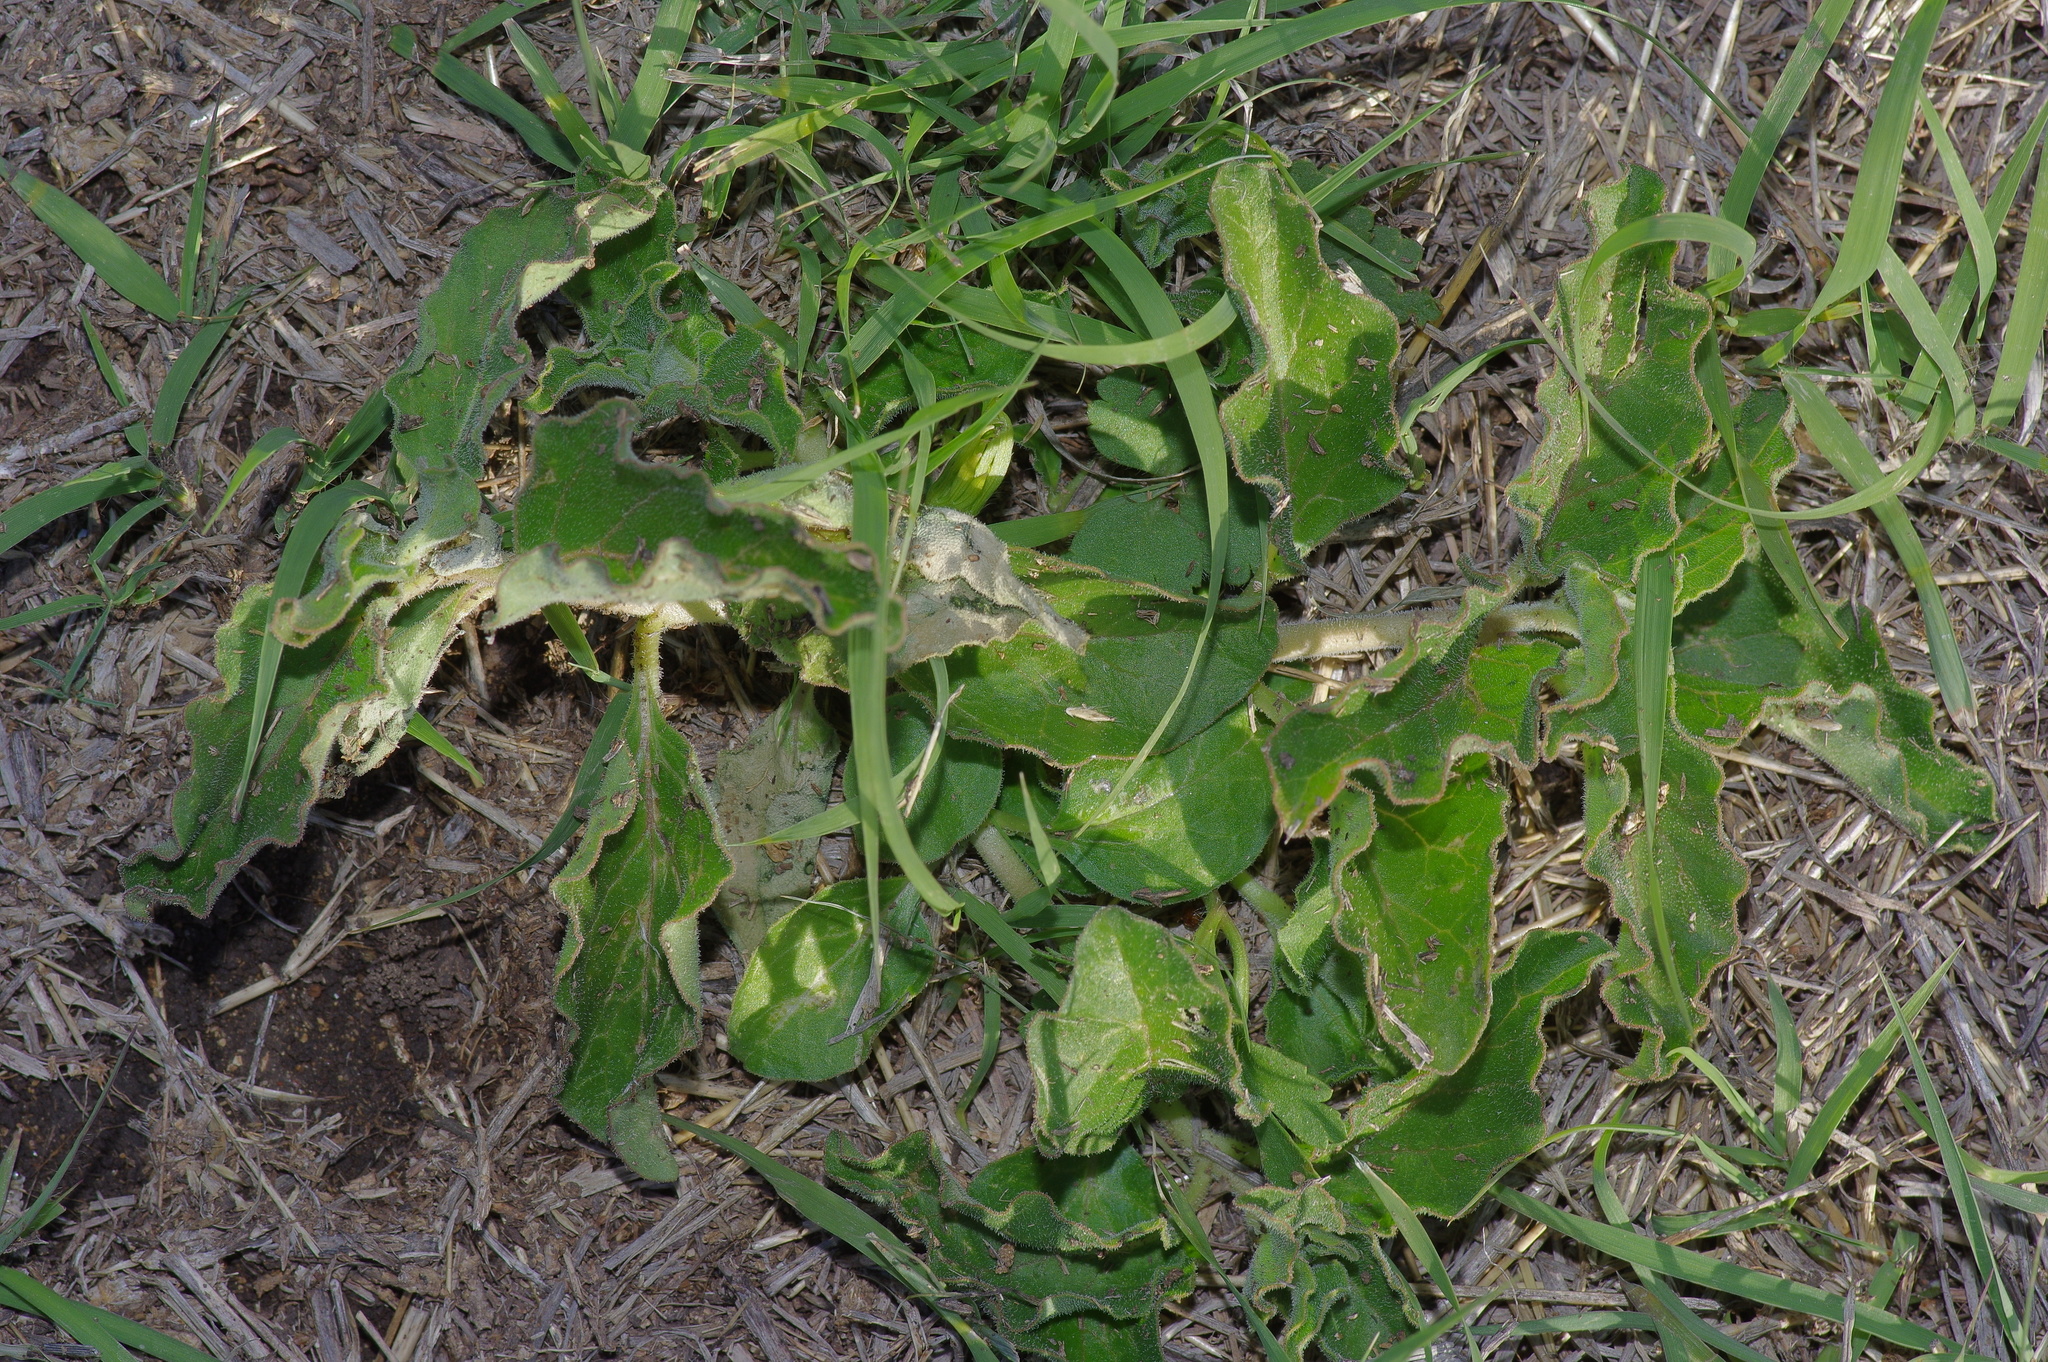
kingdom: Plantae
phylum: Tracheophyta
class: Magnoliopsida
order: Gentianales
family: Apocynaceae
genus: Asclepias
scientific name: Asclepias oenotheroides
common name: Zizotes milkweed
